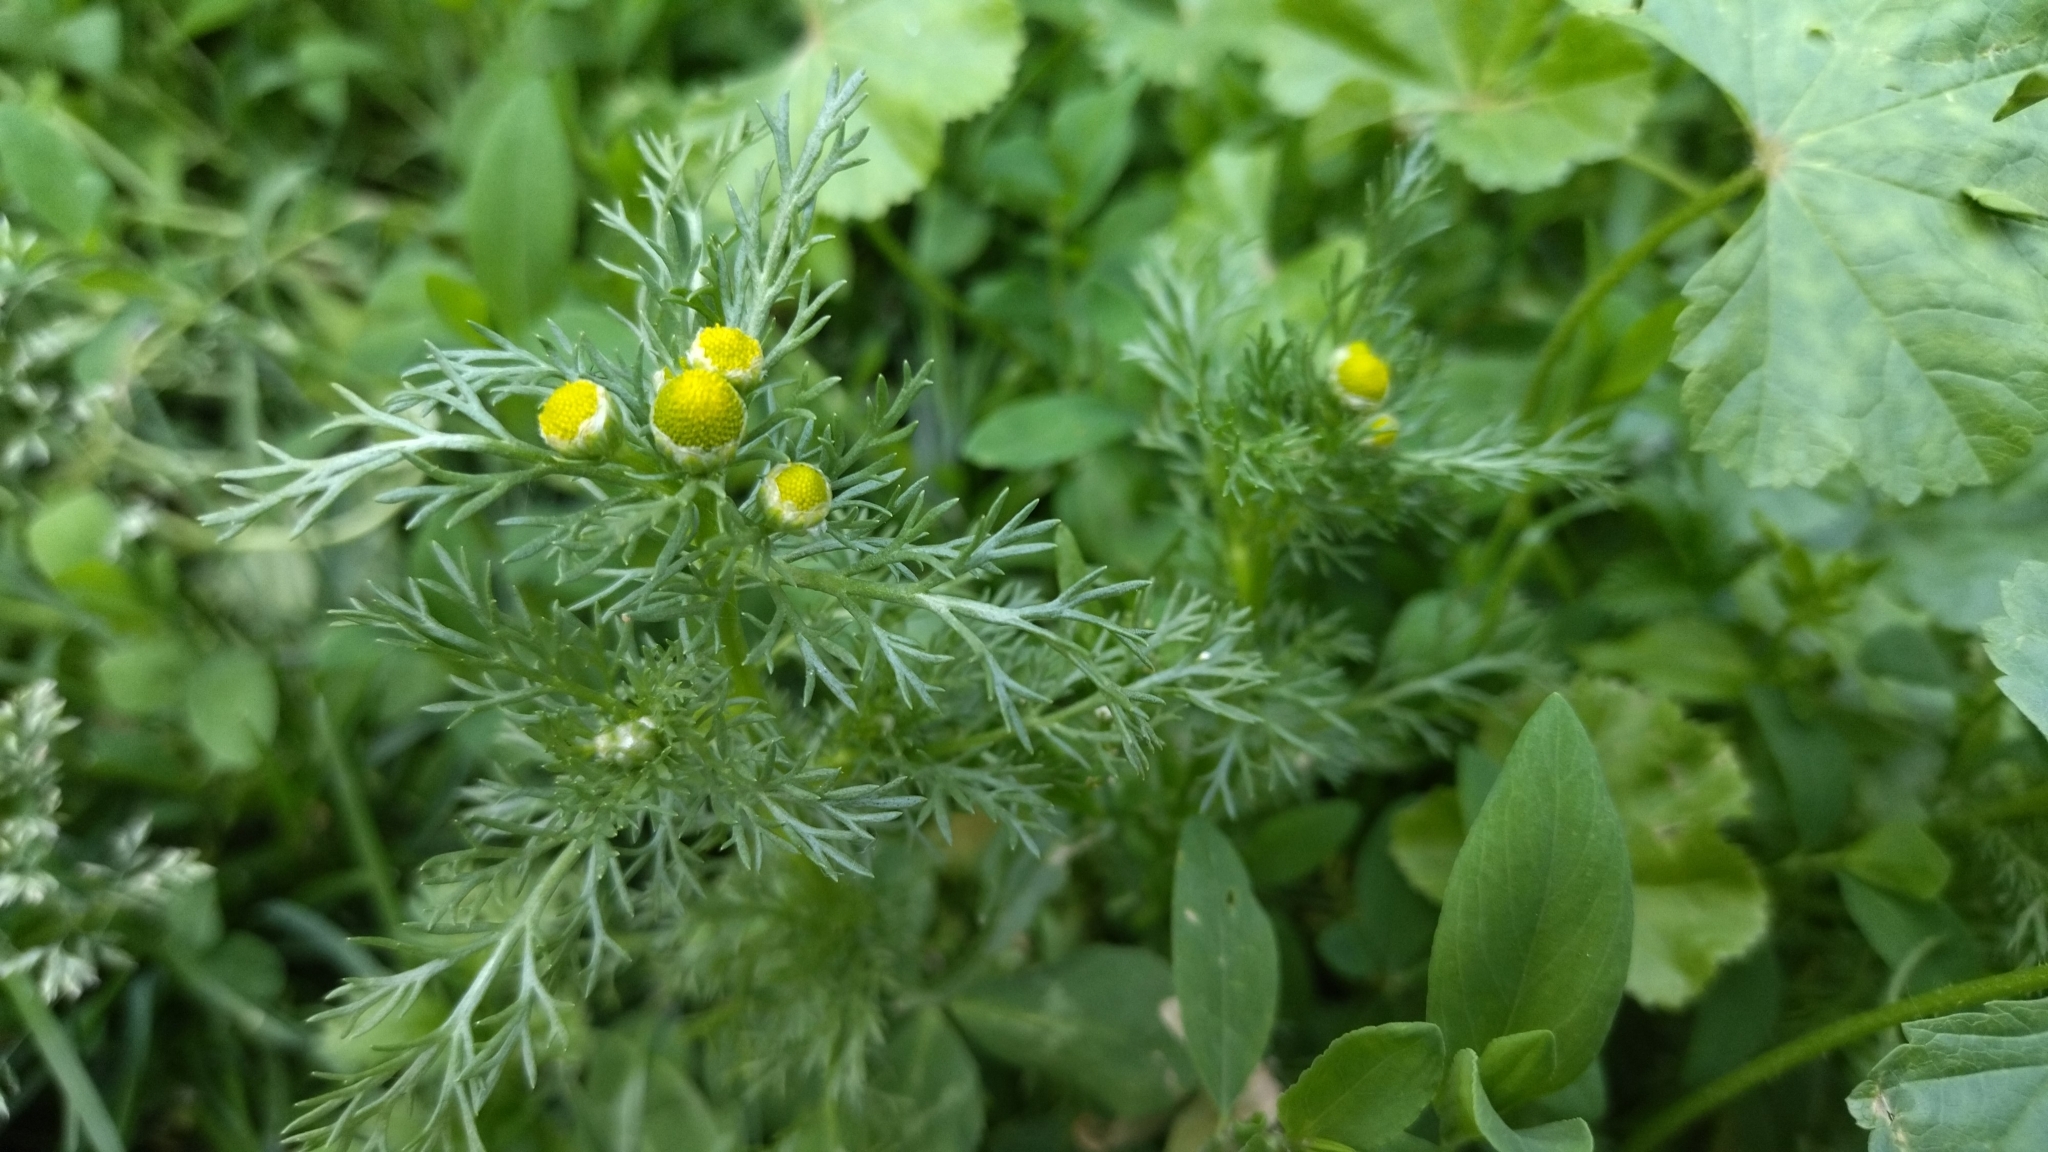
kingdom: Plantae
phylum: Tracheophyta
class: Magnoliopsida
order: Asterales
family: Asteraceae
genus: Matricaria
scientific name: Matricaria discoidea
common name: Disc mayweed
